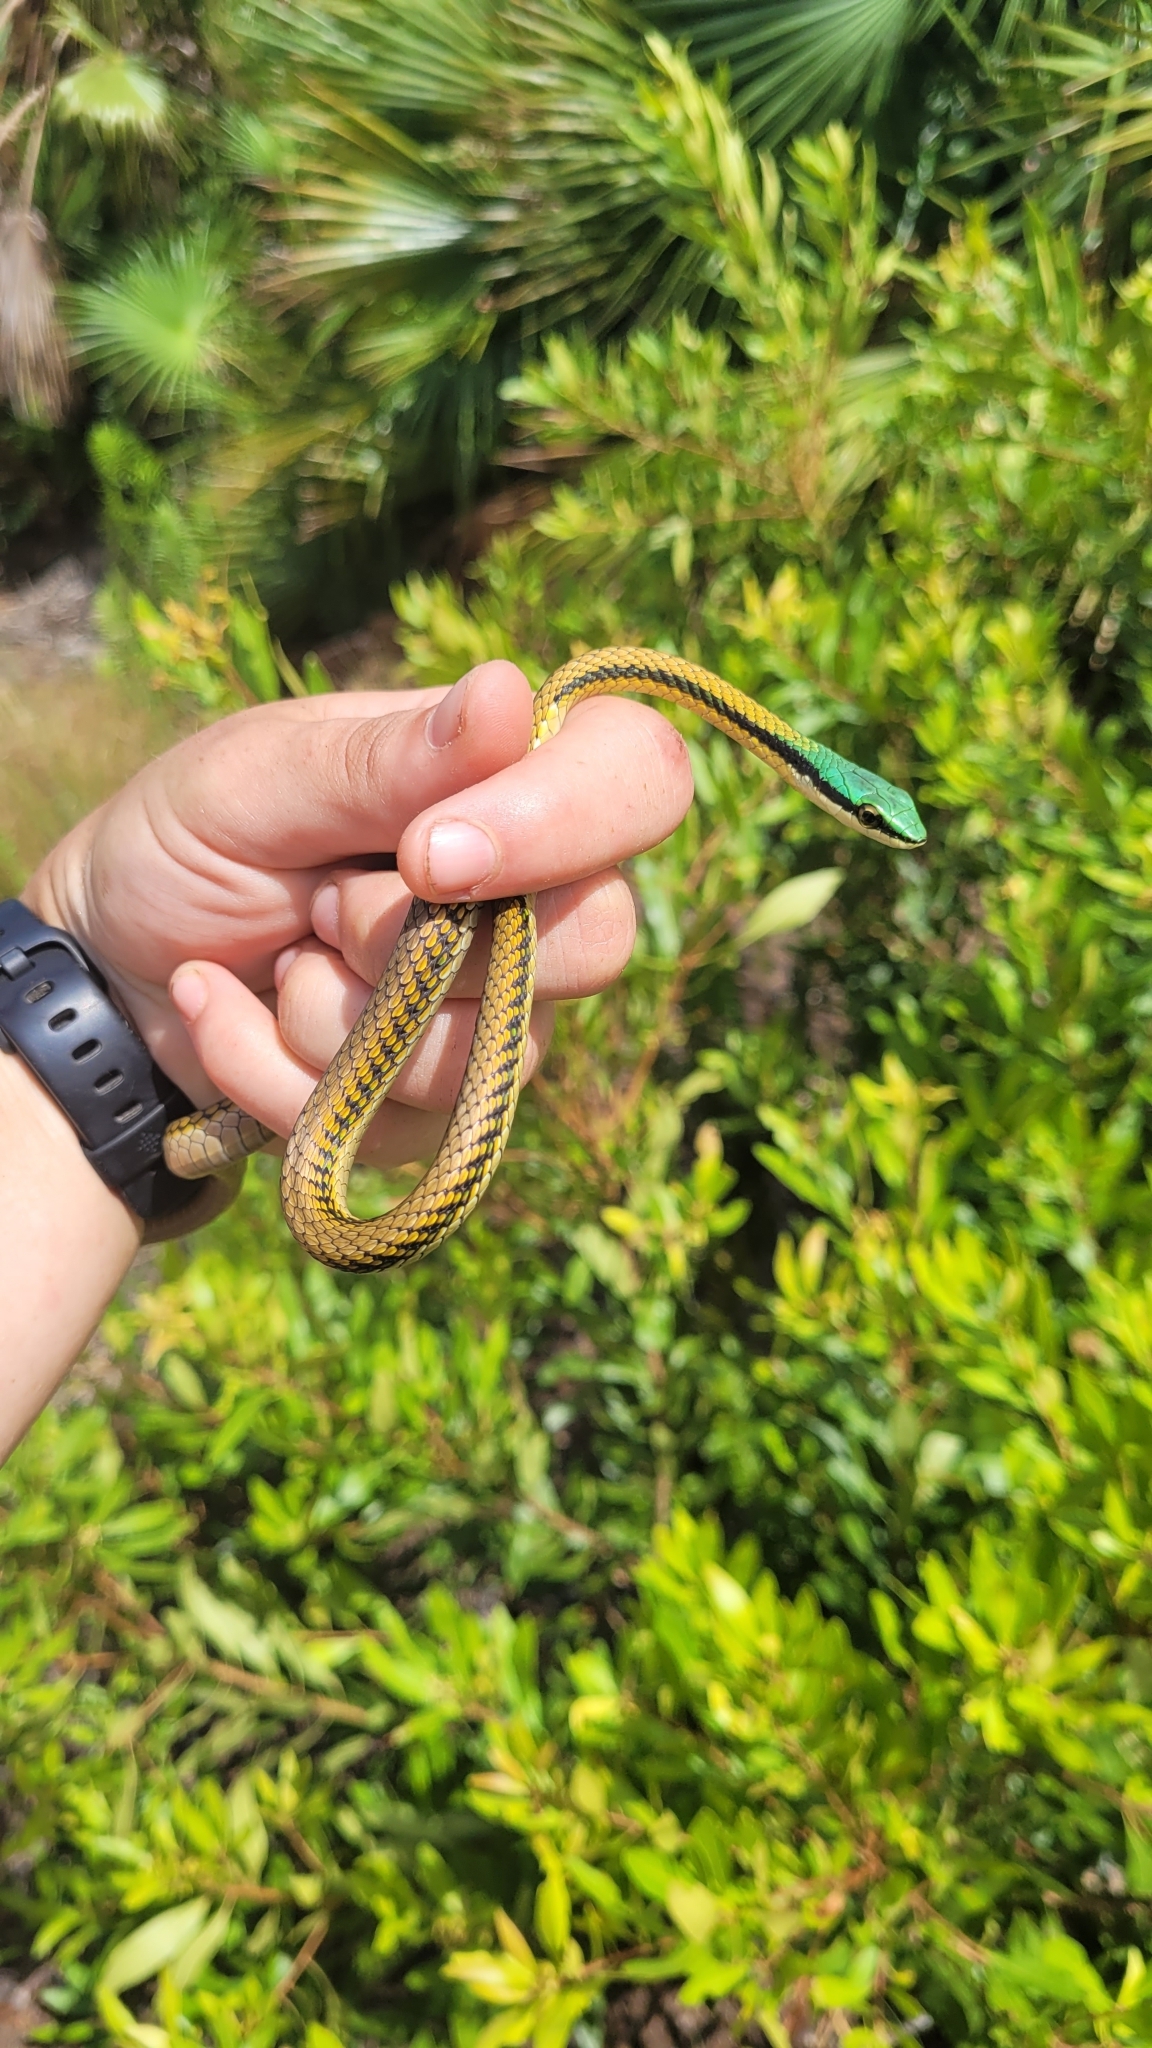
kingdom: Animalia
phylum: Chordata
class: Squamata
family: Colubridae
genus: Leptophis
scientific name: Leptophis mexicanus
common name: Mexican parrot snake
